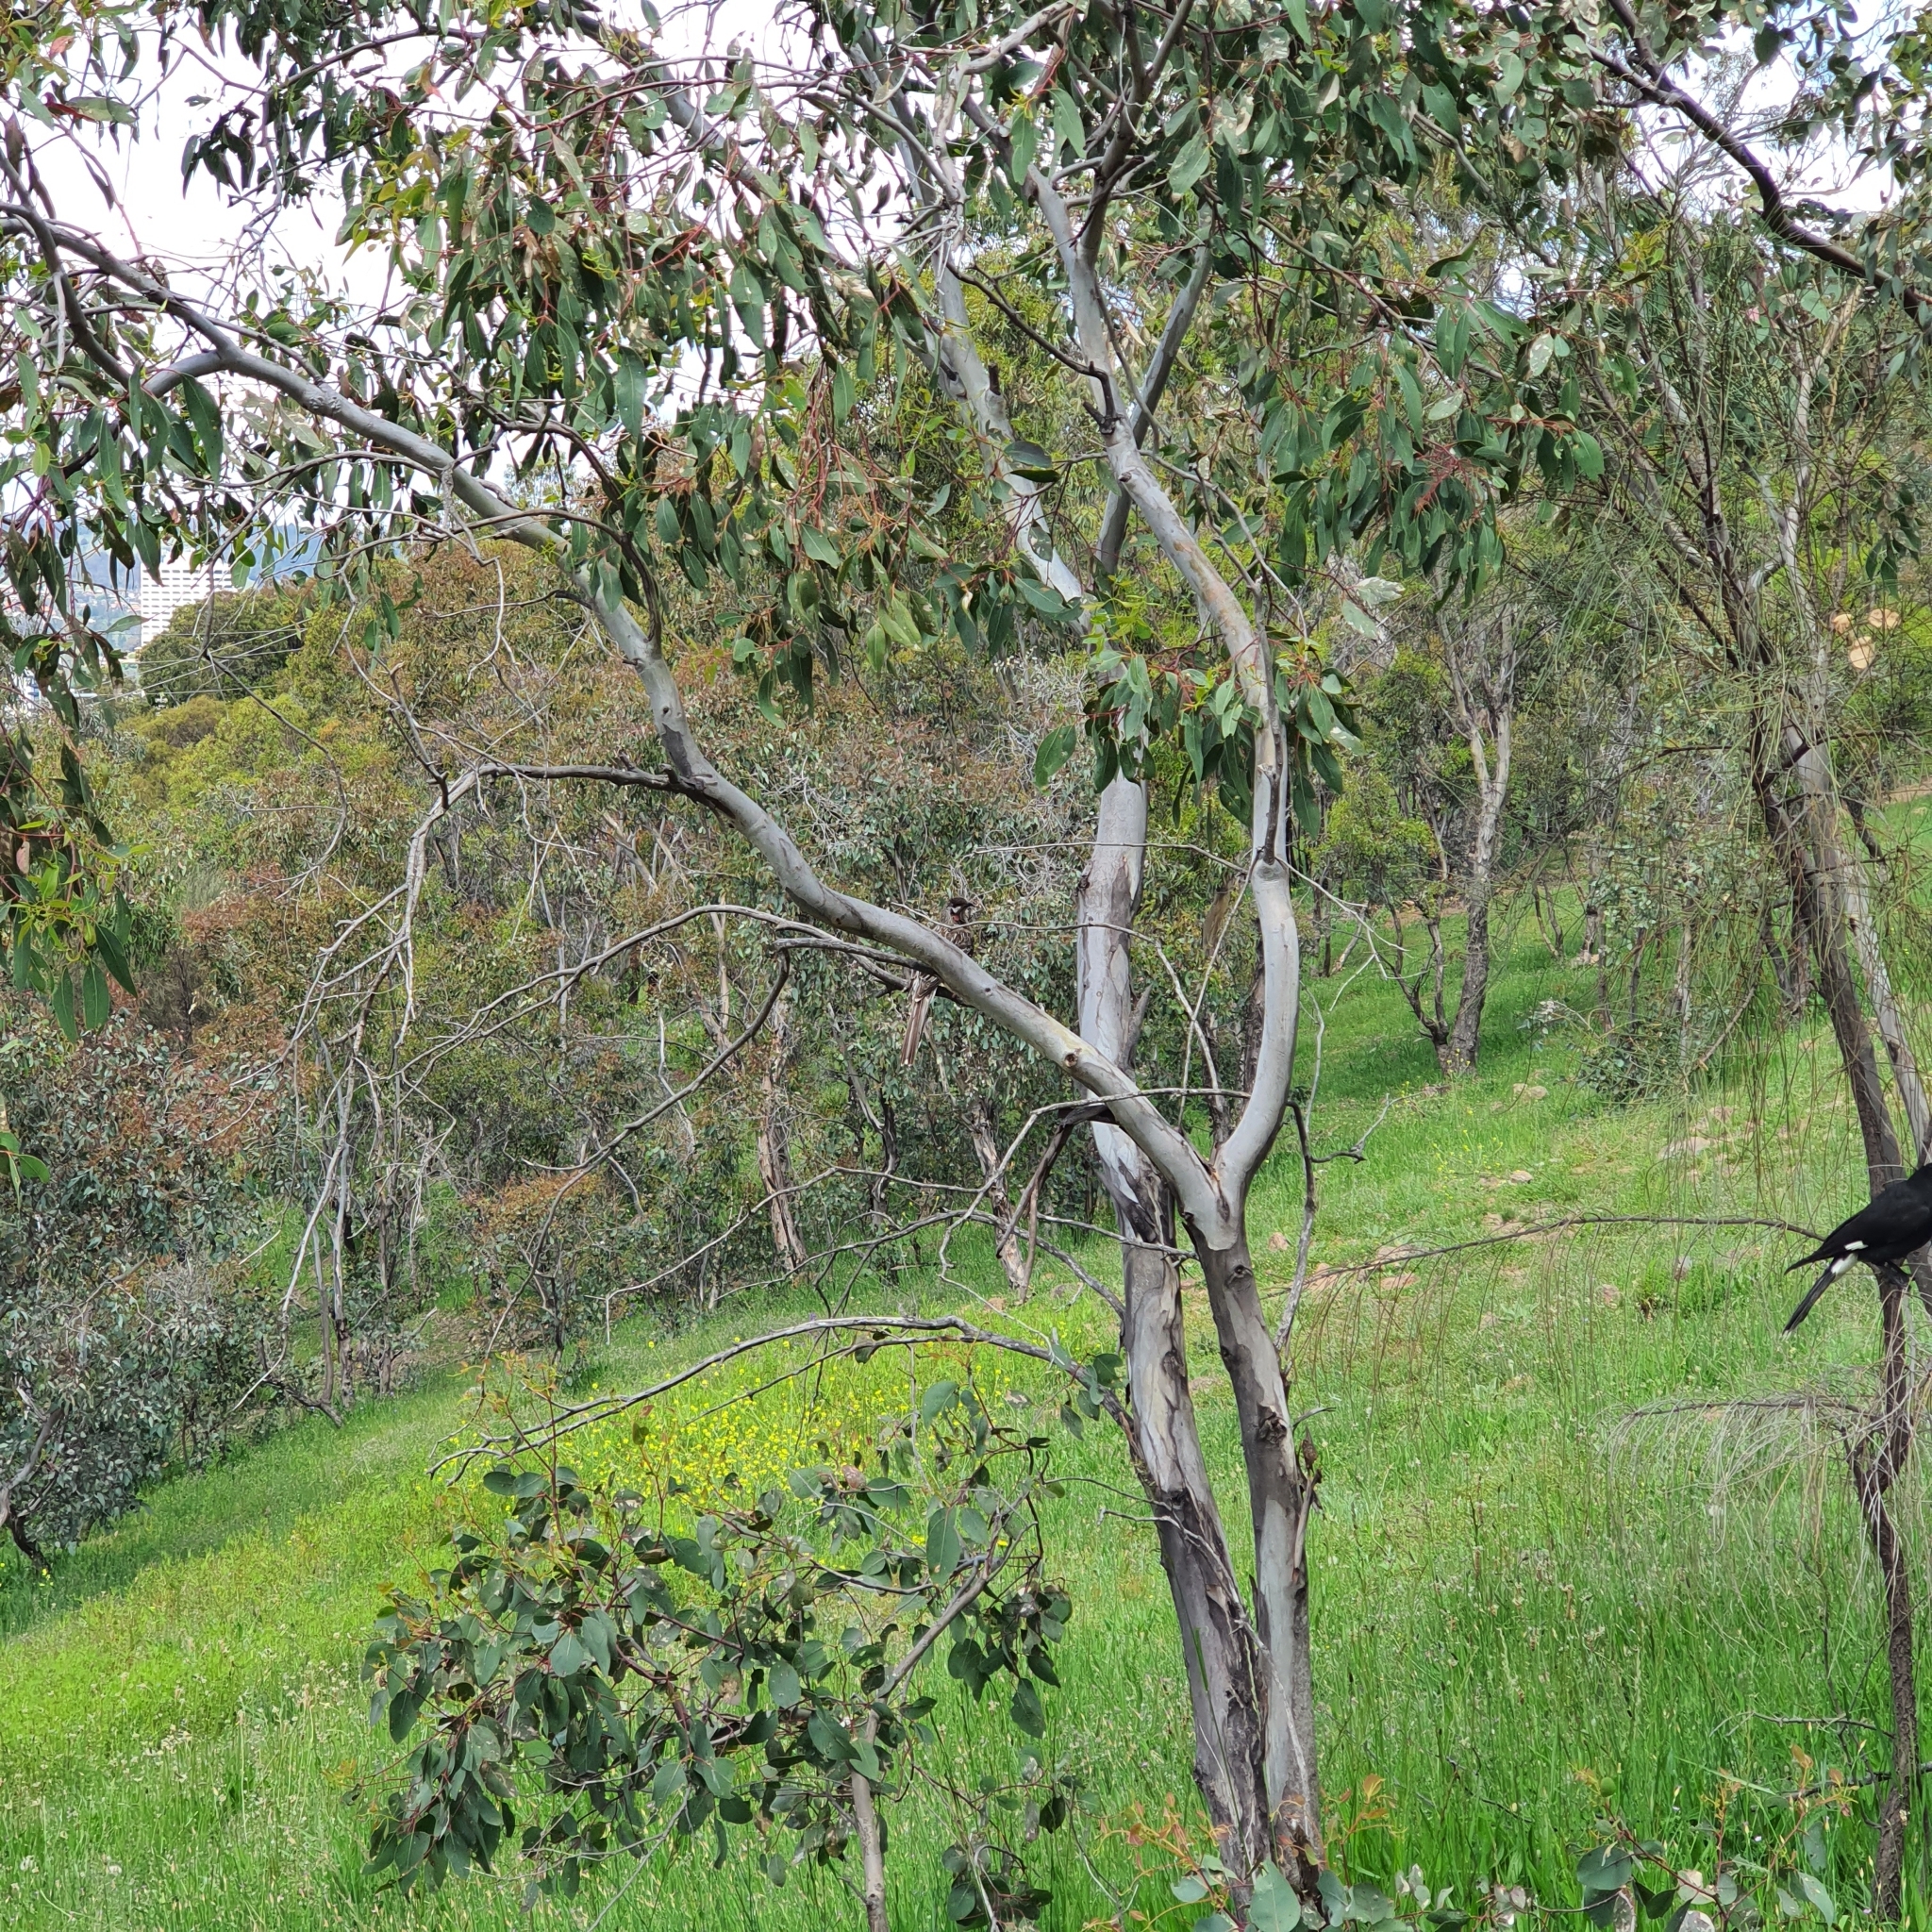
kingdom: Animalia
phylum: Chordata
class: Aves
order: Passeriformes
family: Meliphagidae
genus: Anthochaera
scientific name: Anthochaera carunculata
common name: Red wattlebird
